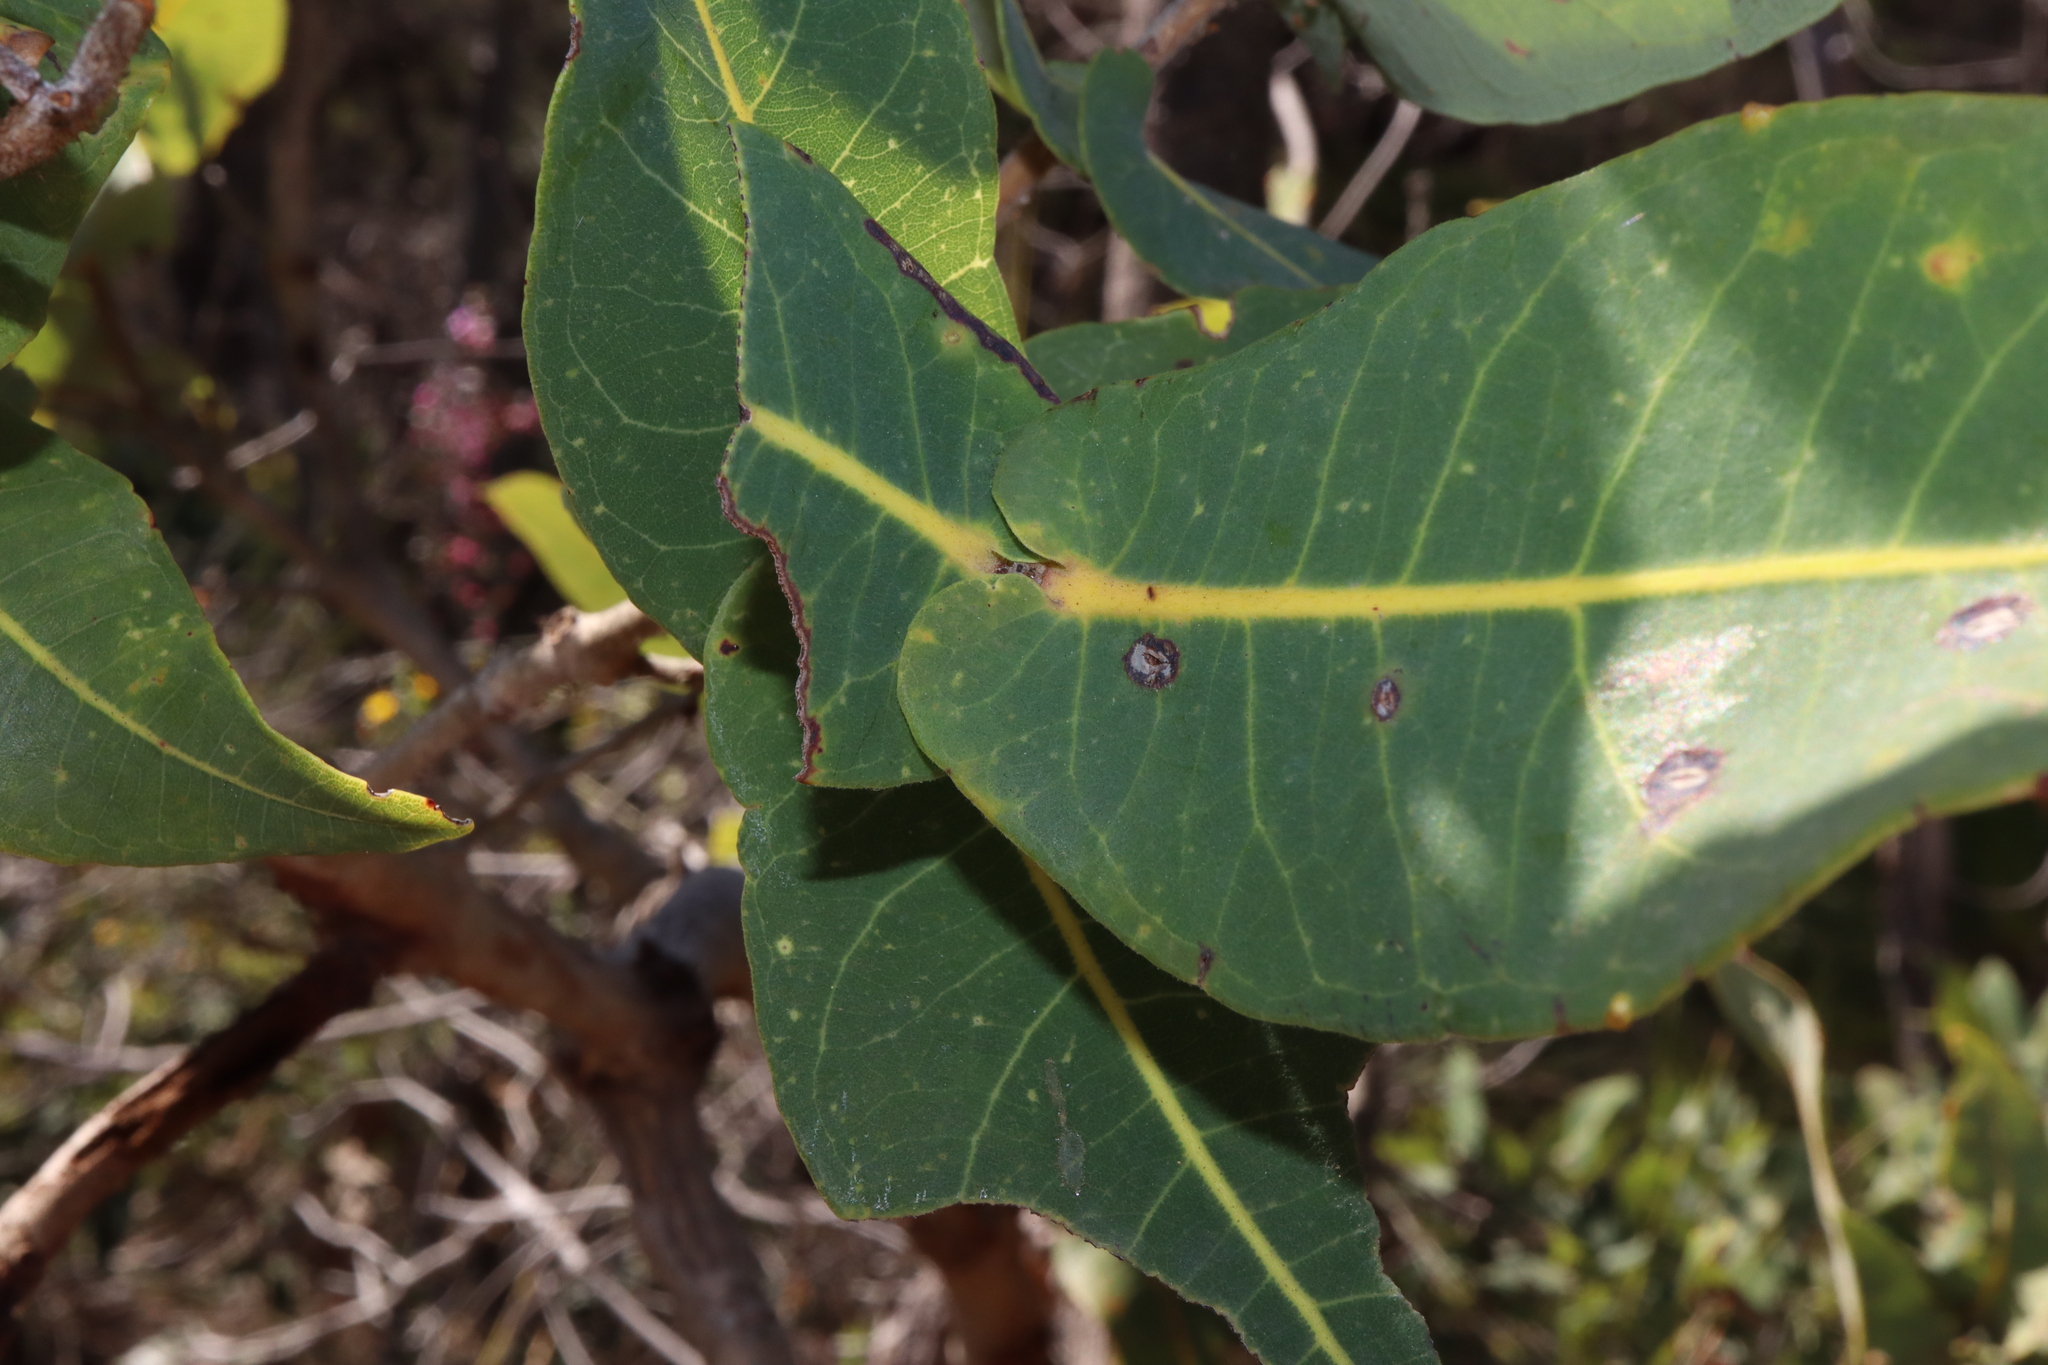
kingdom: Plantae
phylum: Tracheophyta
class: Magnoliopsida
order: Myrtales
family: Myrtaceae
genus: Angophora
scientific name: Angophora hispida
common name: Dwarf-apple
